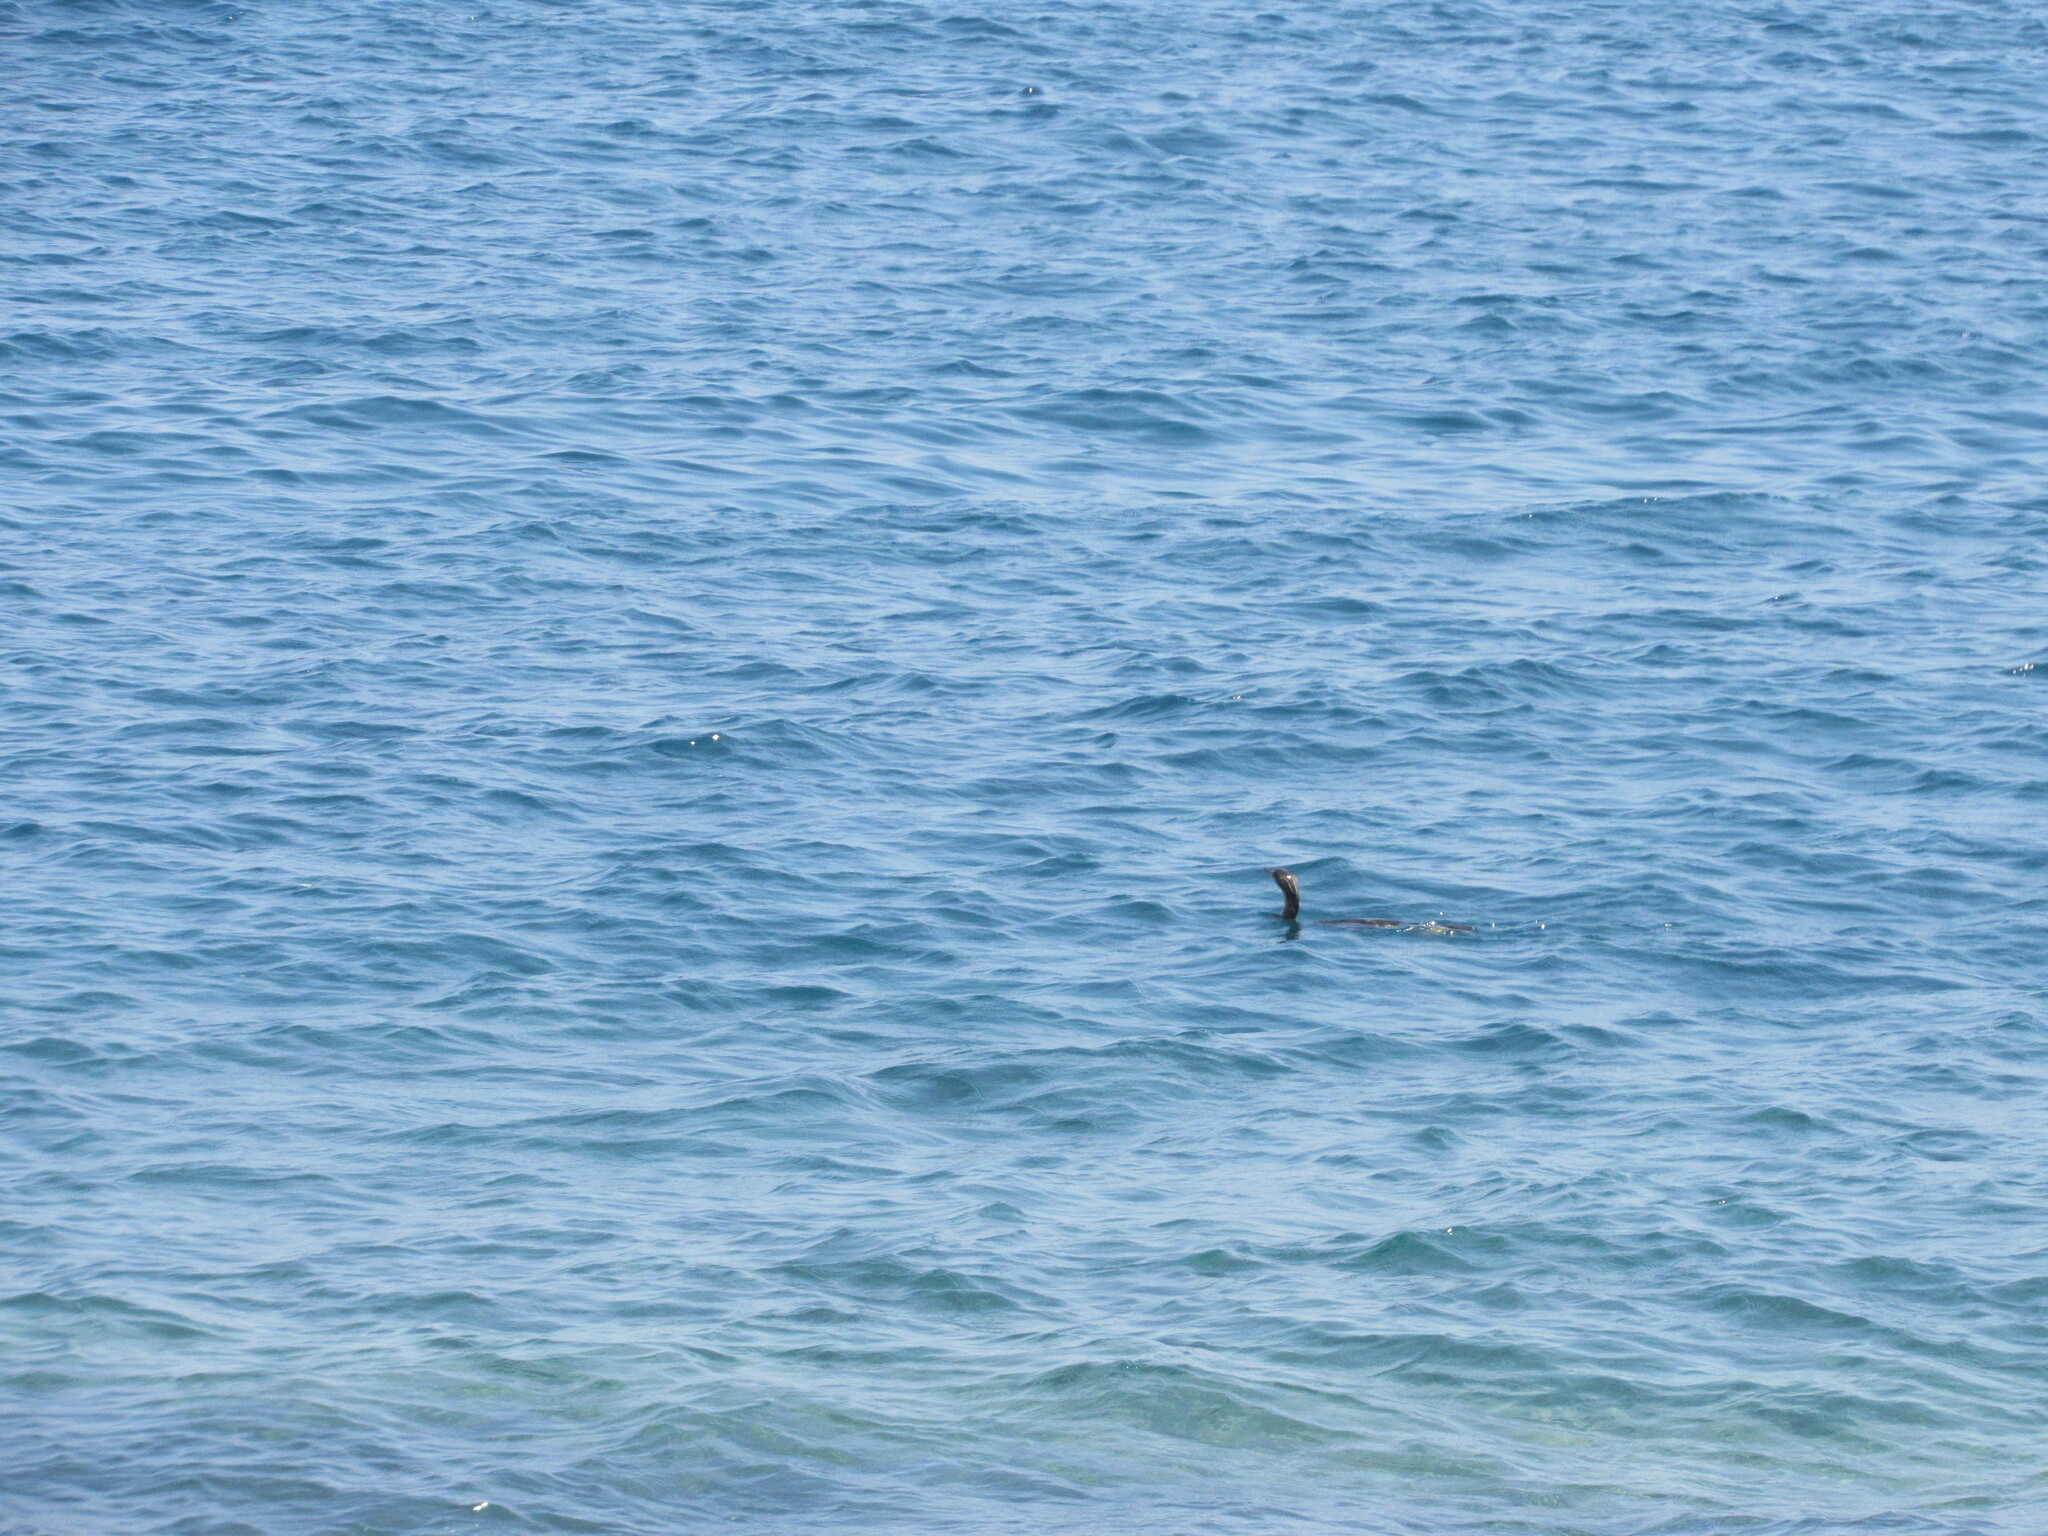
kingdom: Animalia
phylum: Chordata
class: Aves
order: Suliformes
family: Phalacrocoracidae
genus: Phalacrocorax
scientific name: Phalacrocorax aristotelis
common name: European shag
